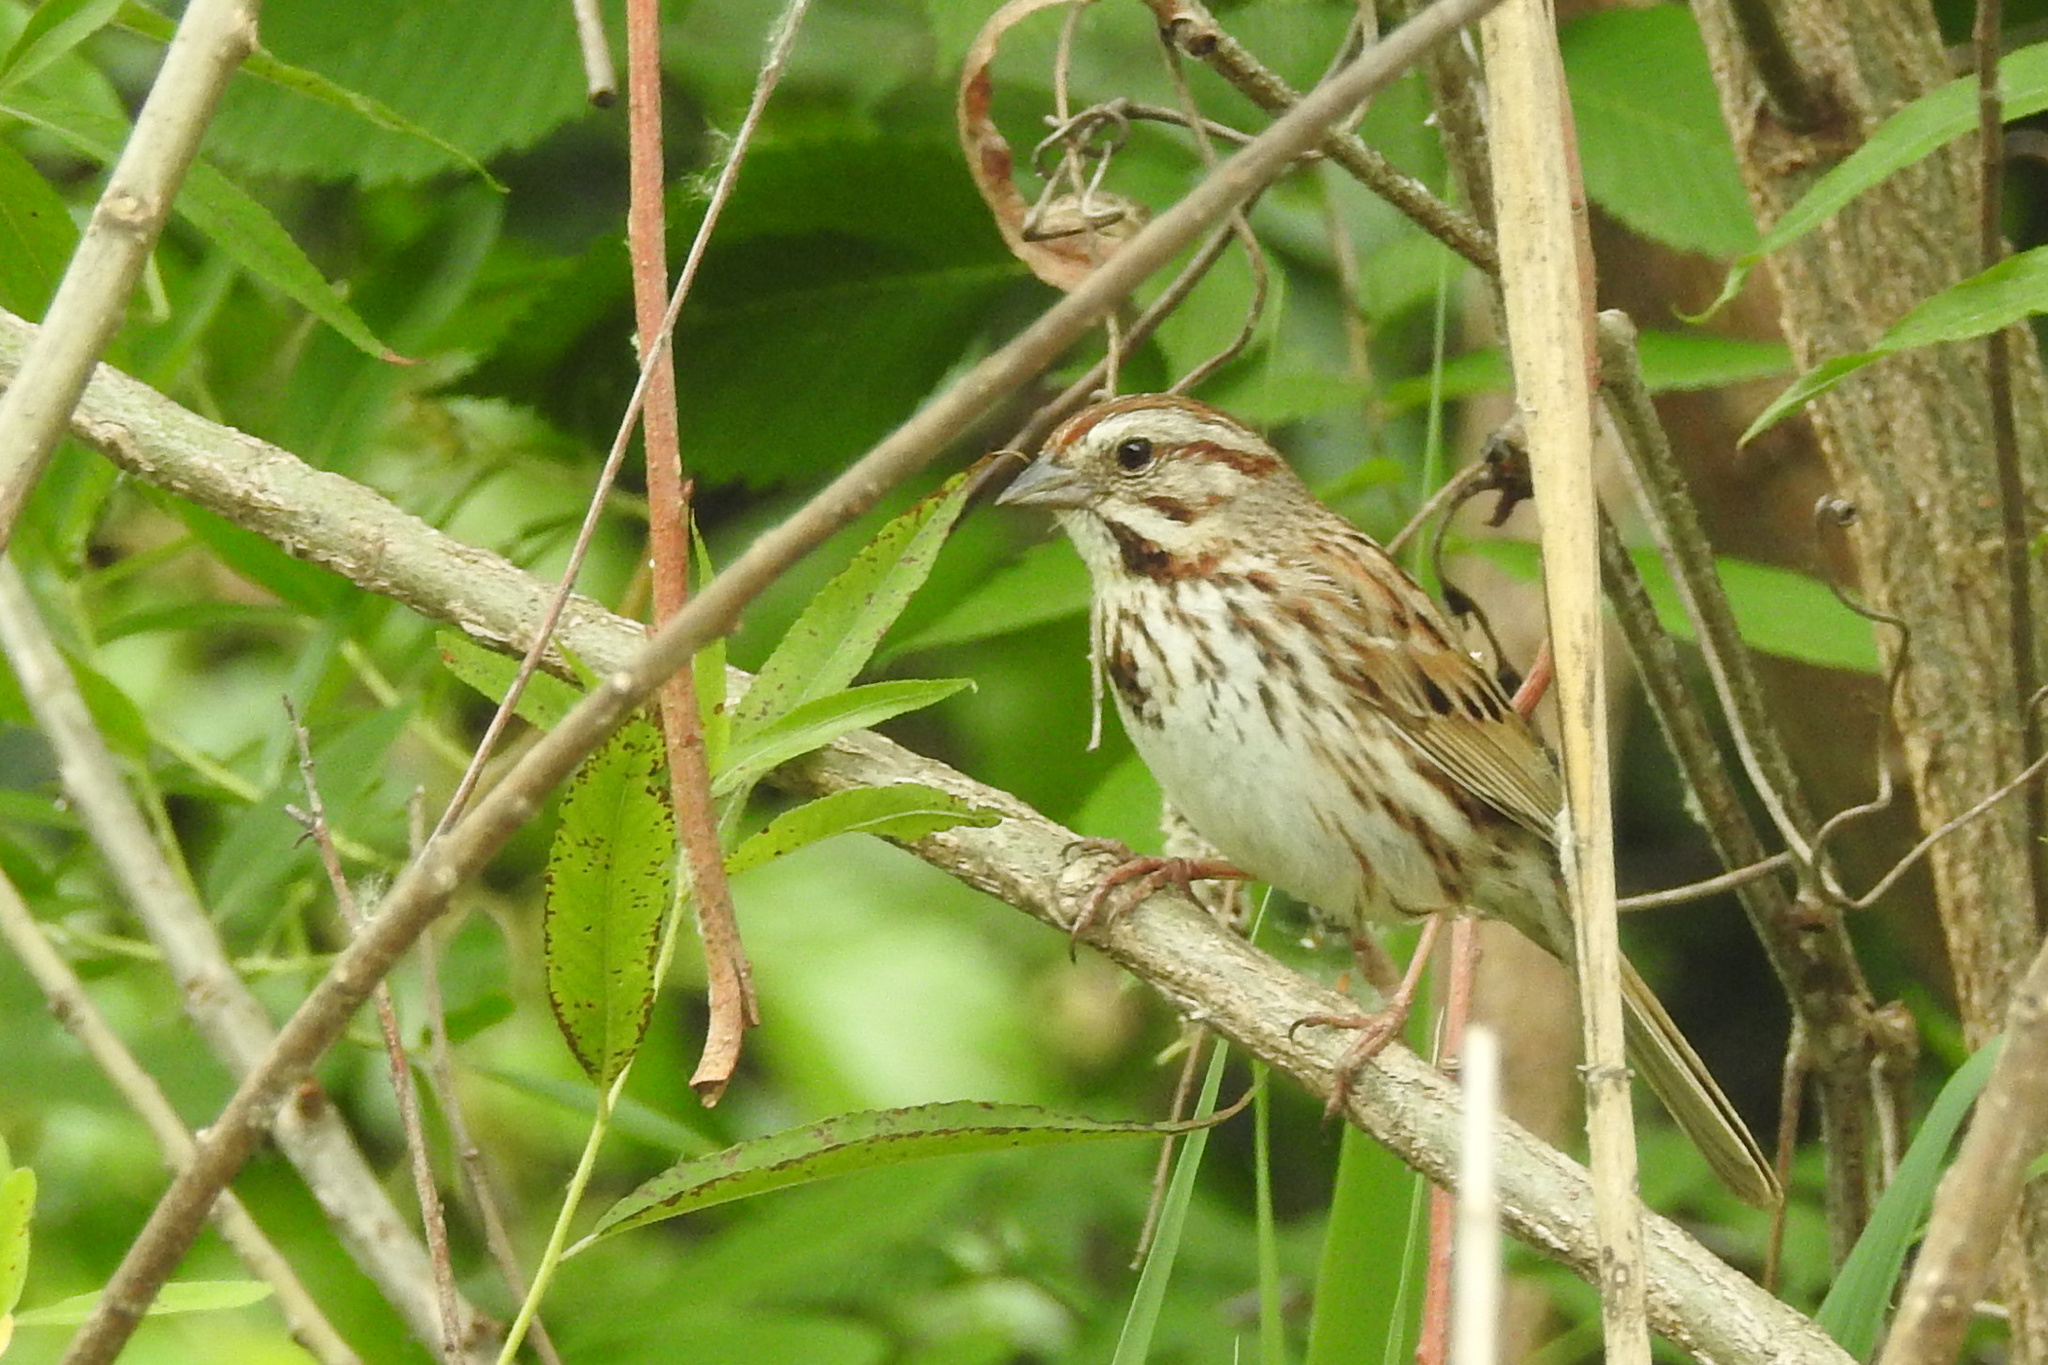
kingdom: Animalia
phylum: Chordata
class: Aves
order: Passeriformes
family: Passerellidae
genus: Melospiza
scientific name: Melospiza melodia
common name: Song sparrow
